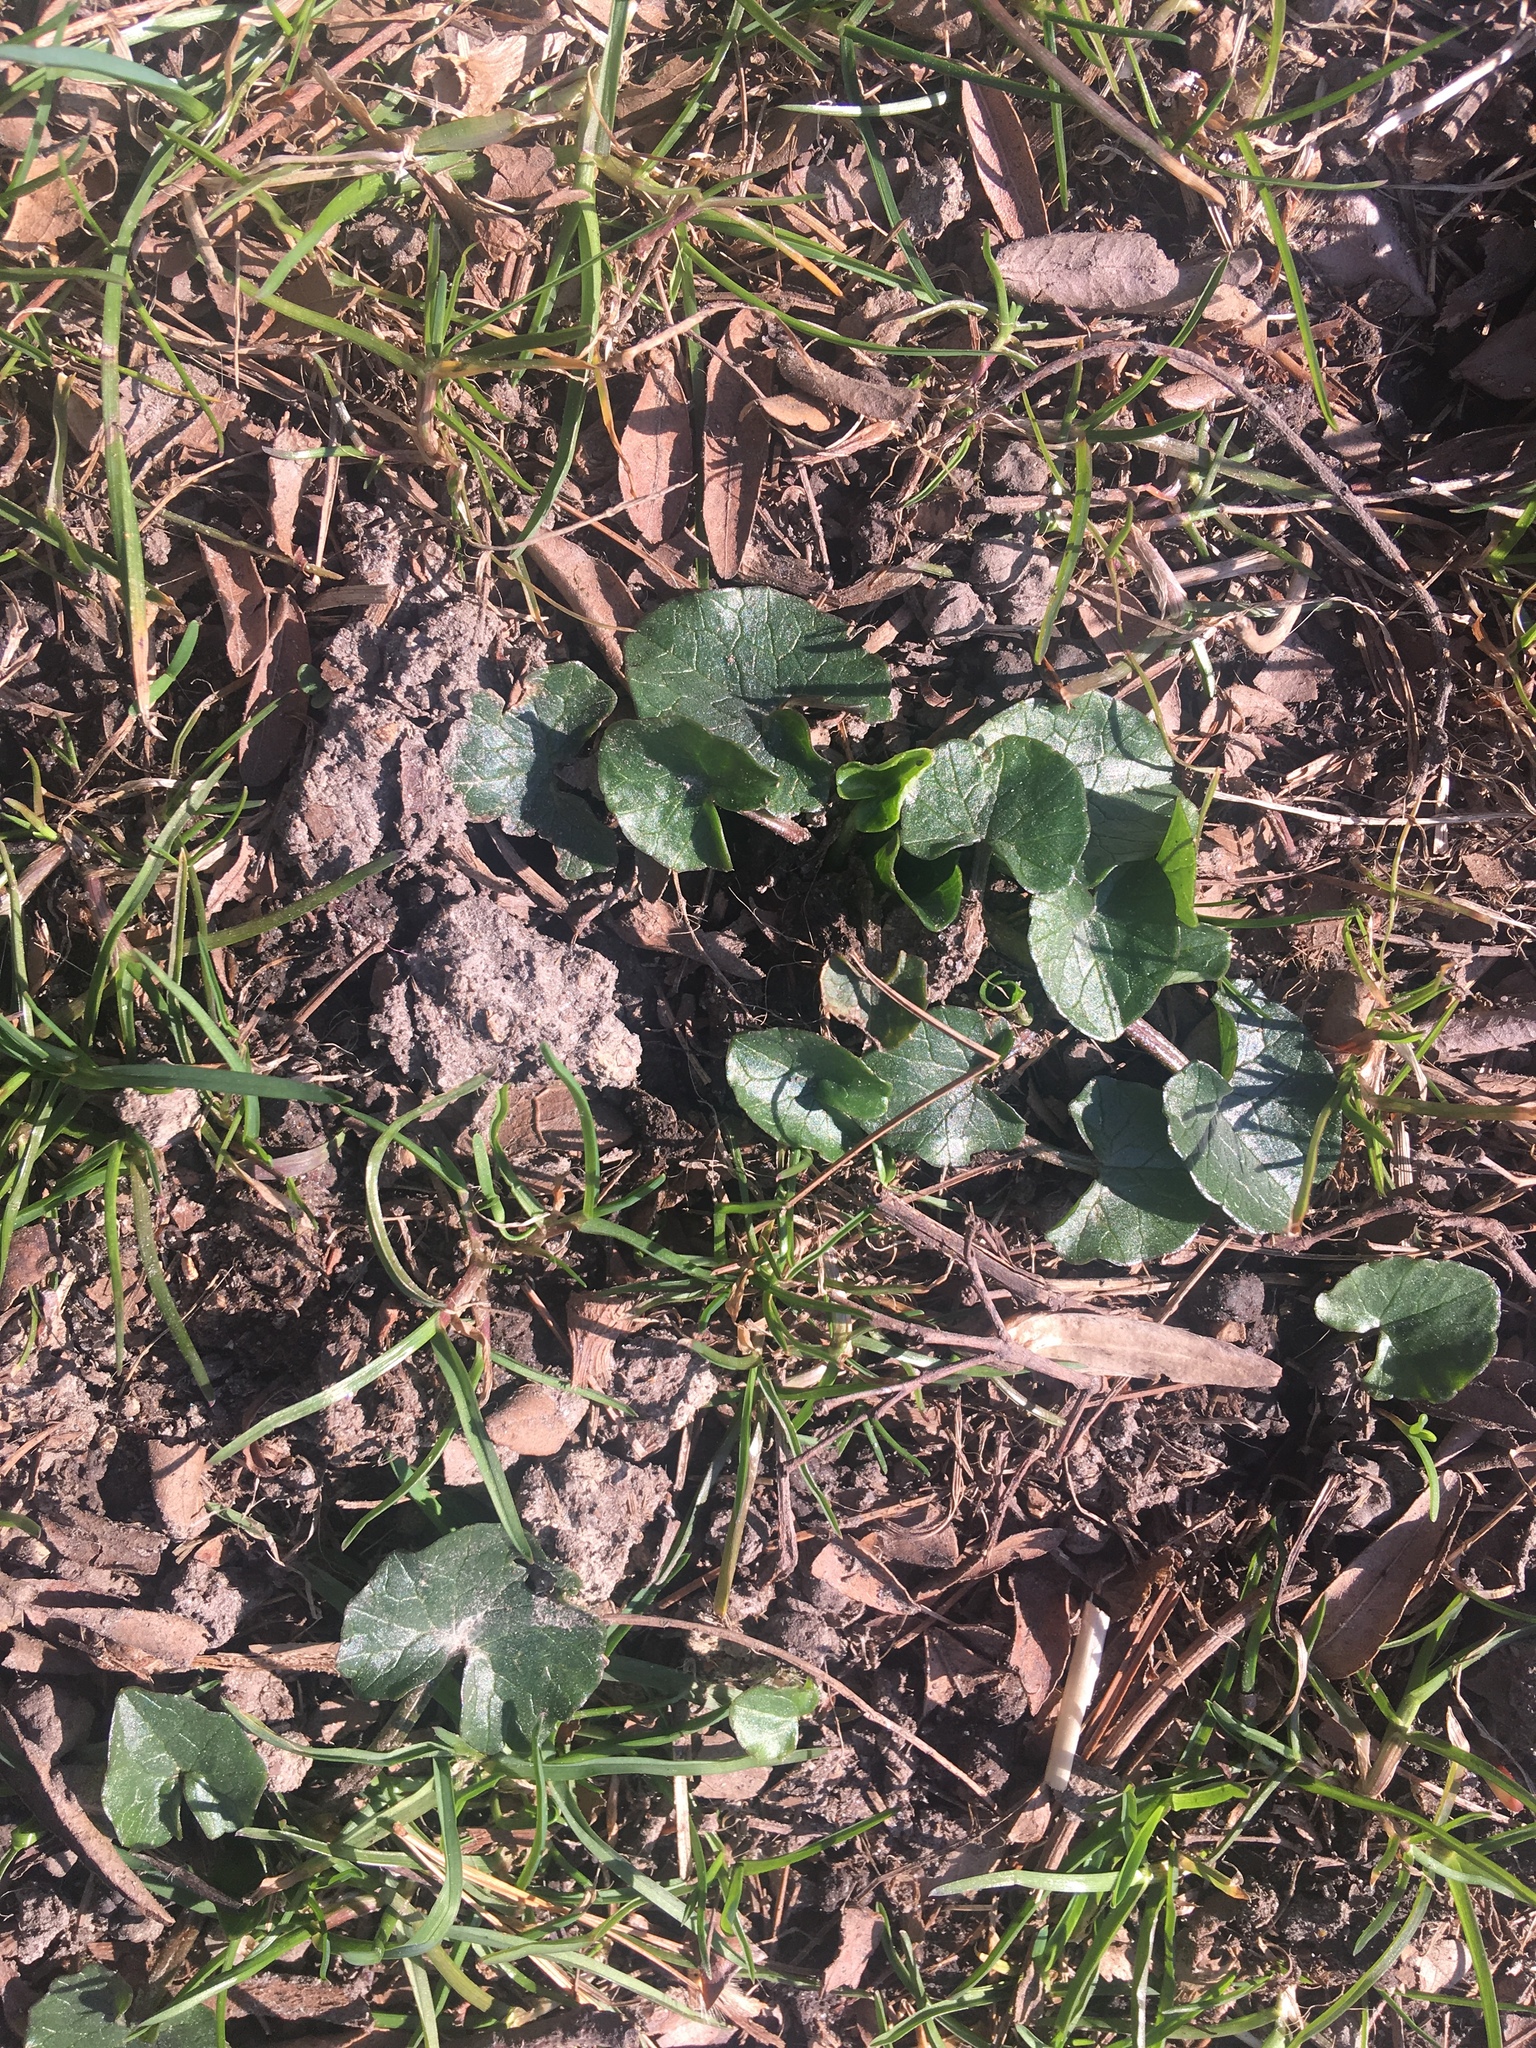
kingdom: Plantae
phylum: Tracheophyta
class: Magnoliopsida
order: Ranunculales
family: Ranunculaceae
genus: Ficaria
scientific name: Ficaria verna
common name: Lesser celandine
